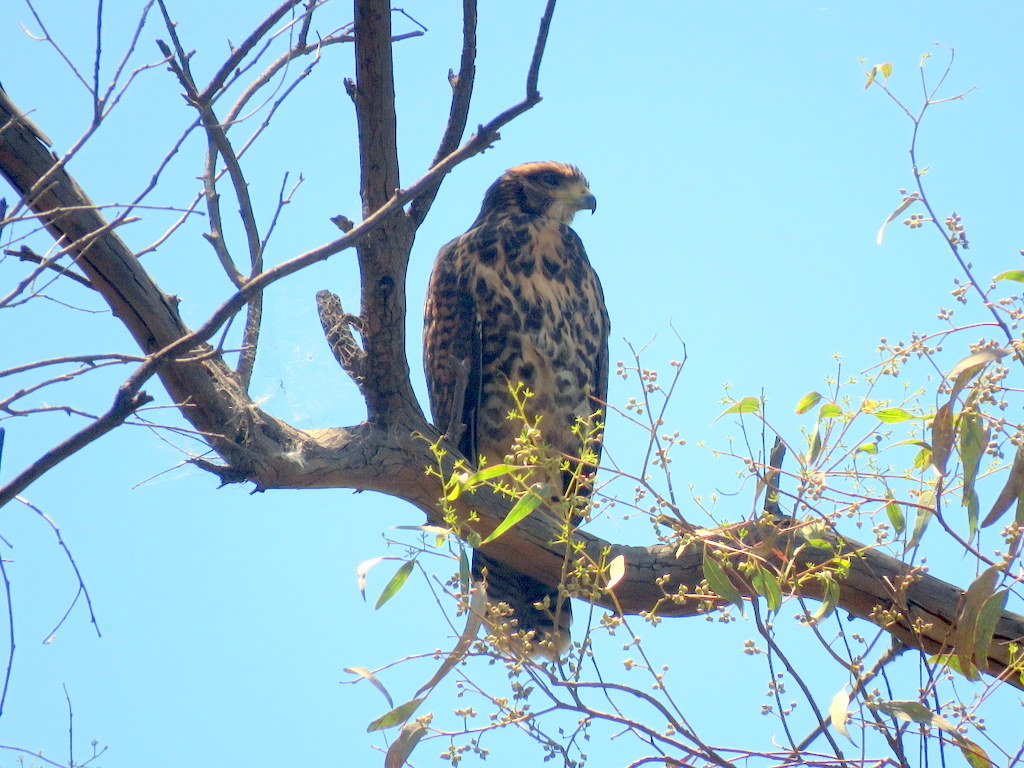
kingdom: Animalia
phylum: Chordata
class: Aves
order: Accipitriformes
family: Accipitridae
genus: Parabuteo
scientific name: Parabuteo unicinctus
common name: Harris's hawk
